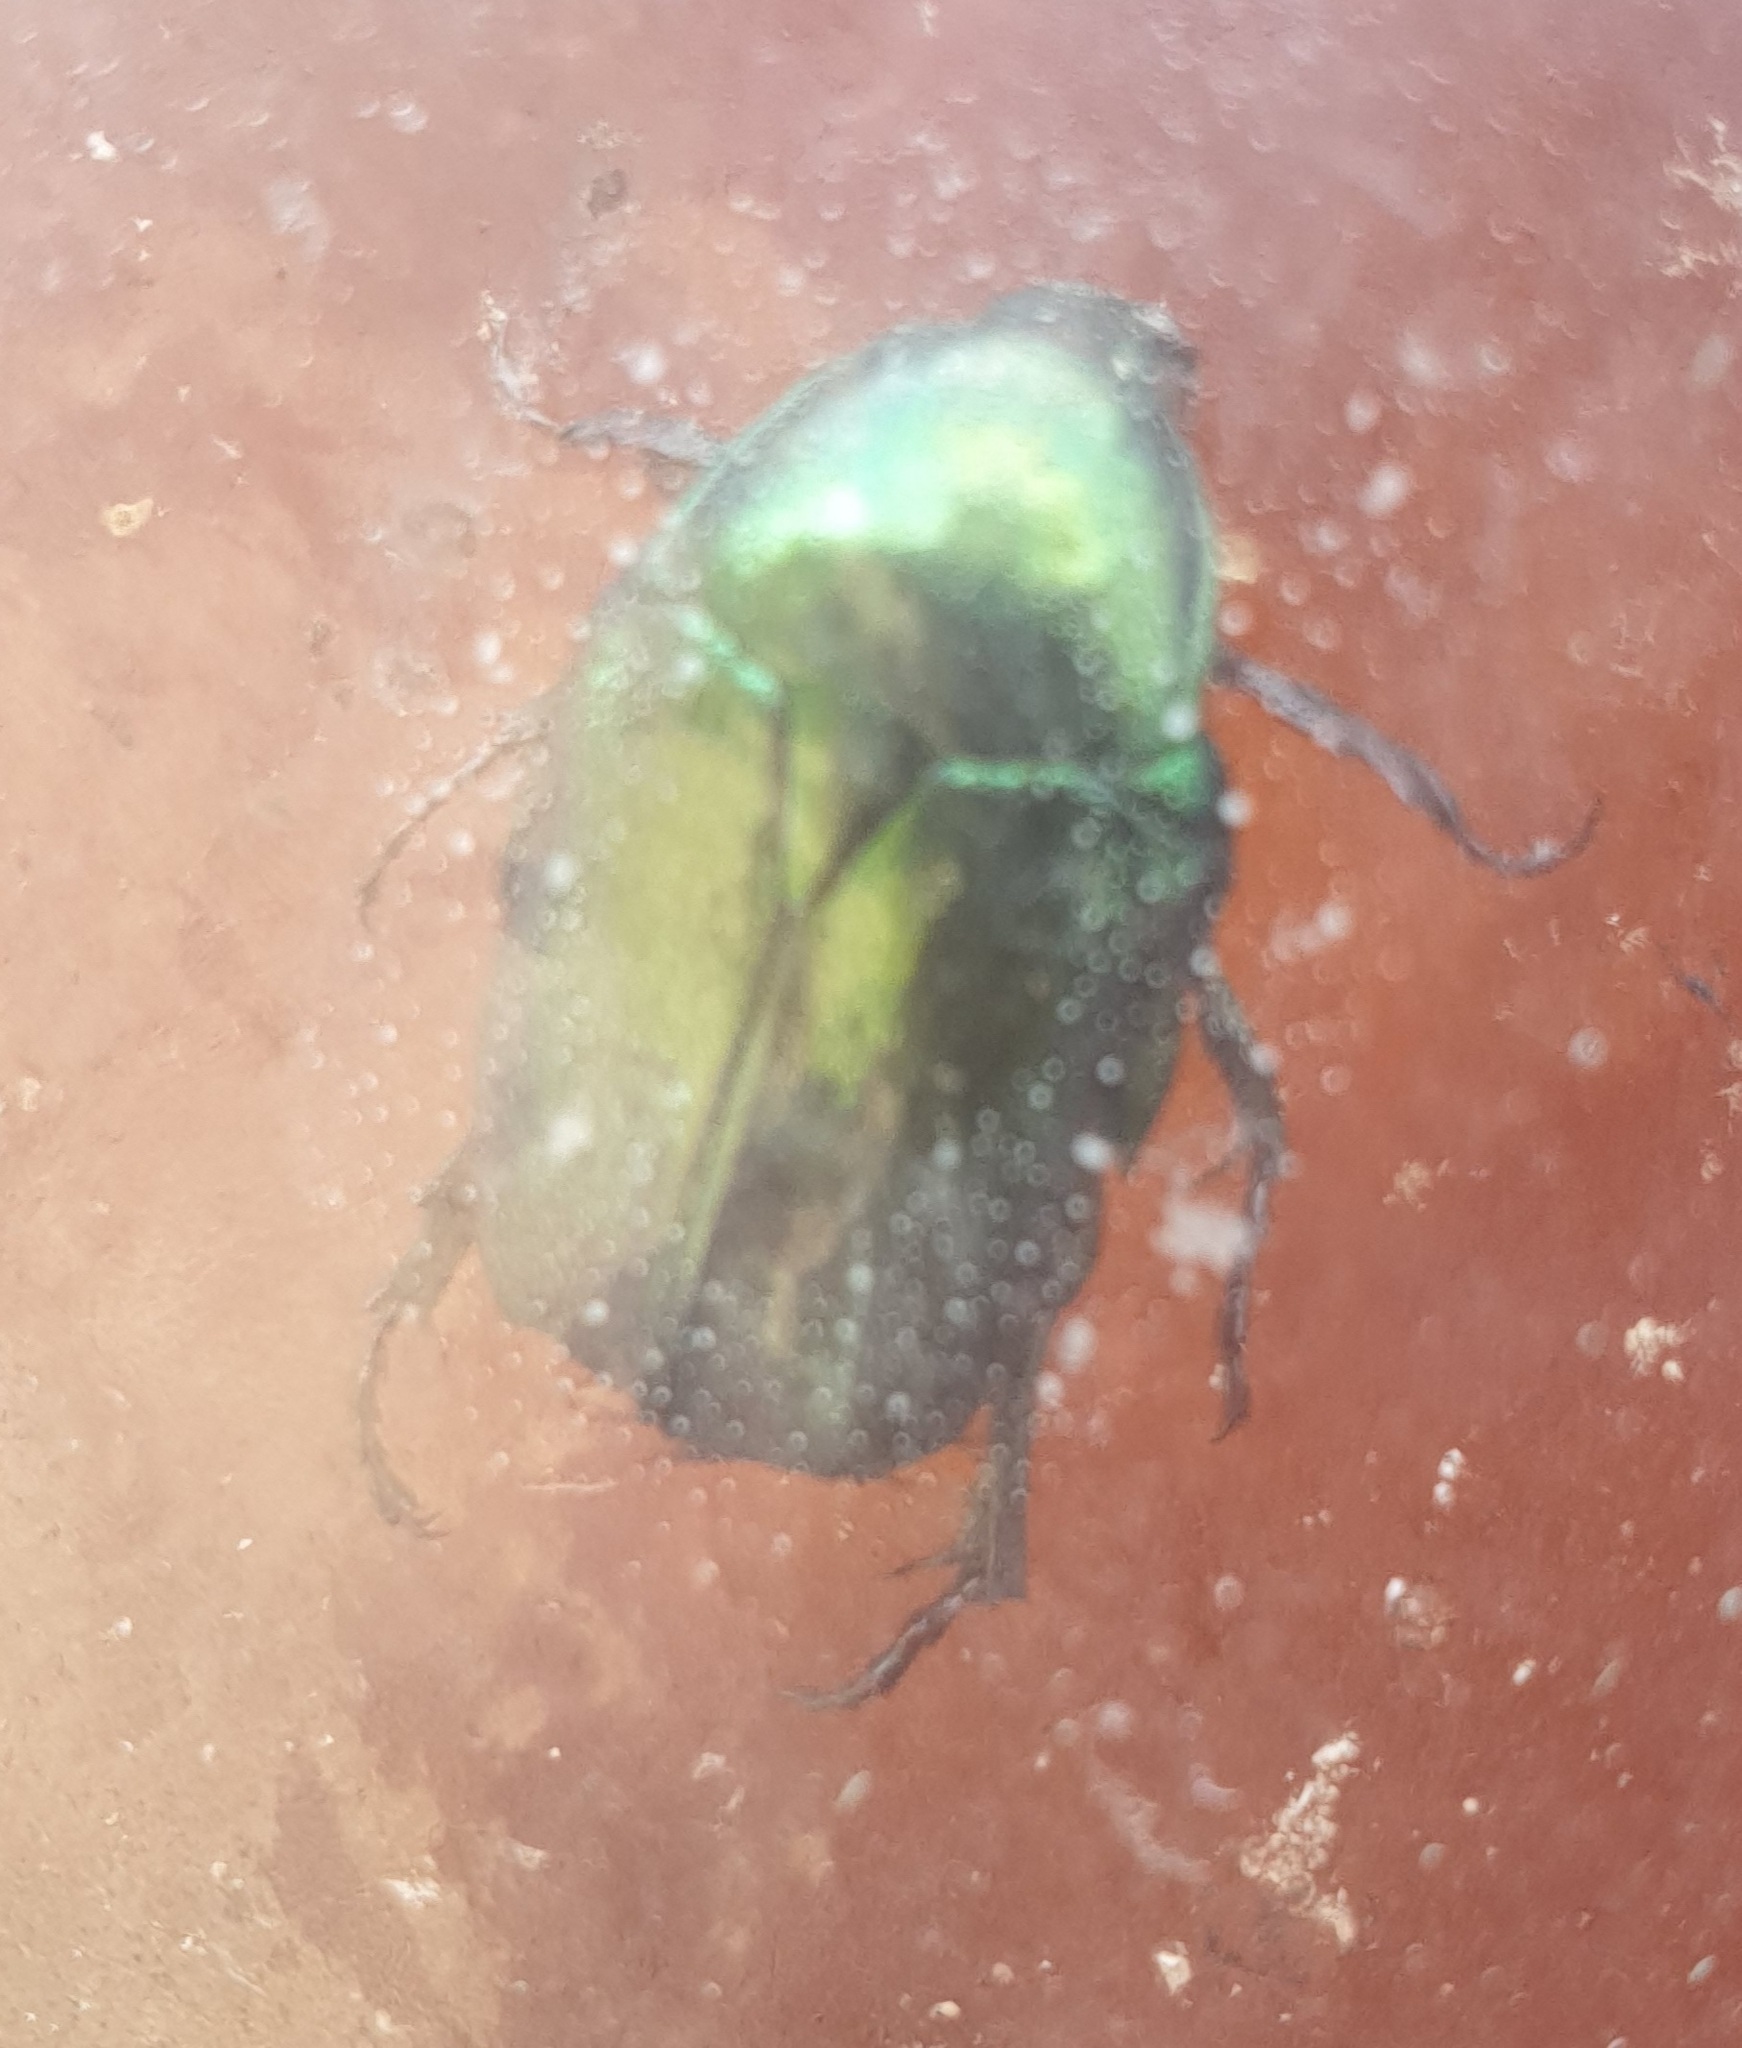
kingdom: Animalia
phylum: Arthropoda
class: Insecta
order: Coleoptera
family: Scarabaeidae
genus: Cetonia
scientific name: Cetonia aurata
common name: Rose chafer
